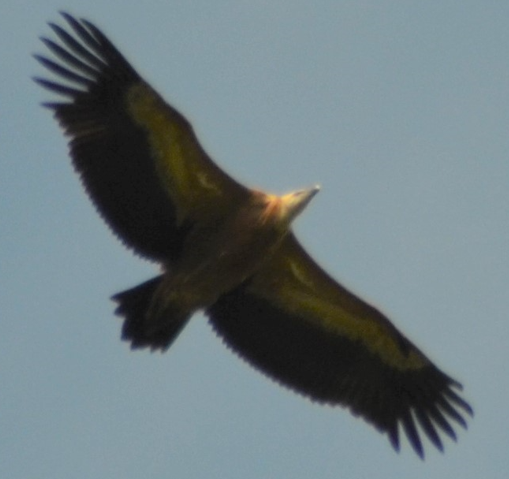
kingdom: Animalia
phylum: Chordata
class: Aves
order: Accipitriformes
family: Accipitridae
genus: Gyps
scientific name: Gyps fulvus
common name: Griffon vulture
